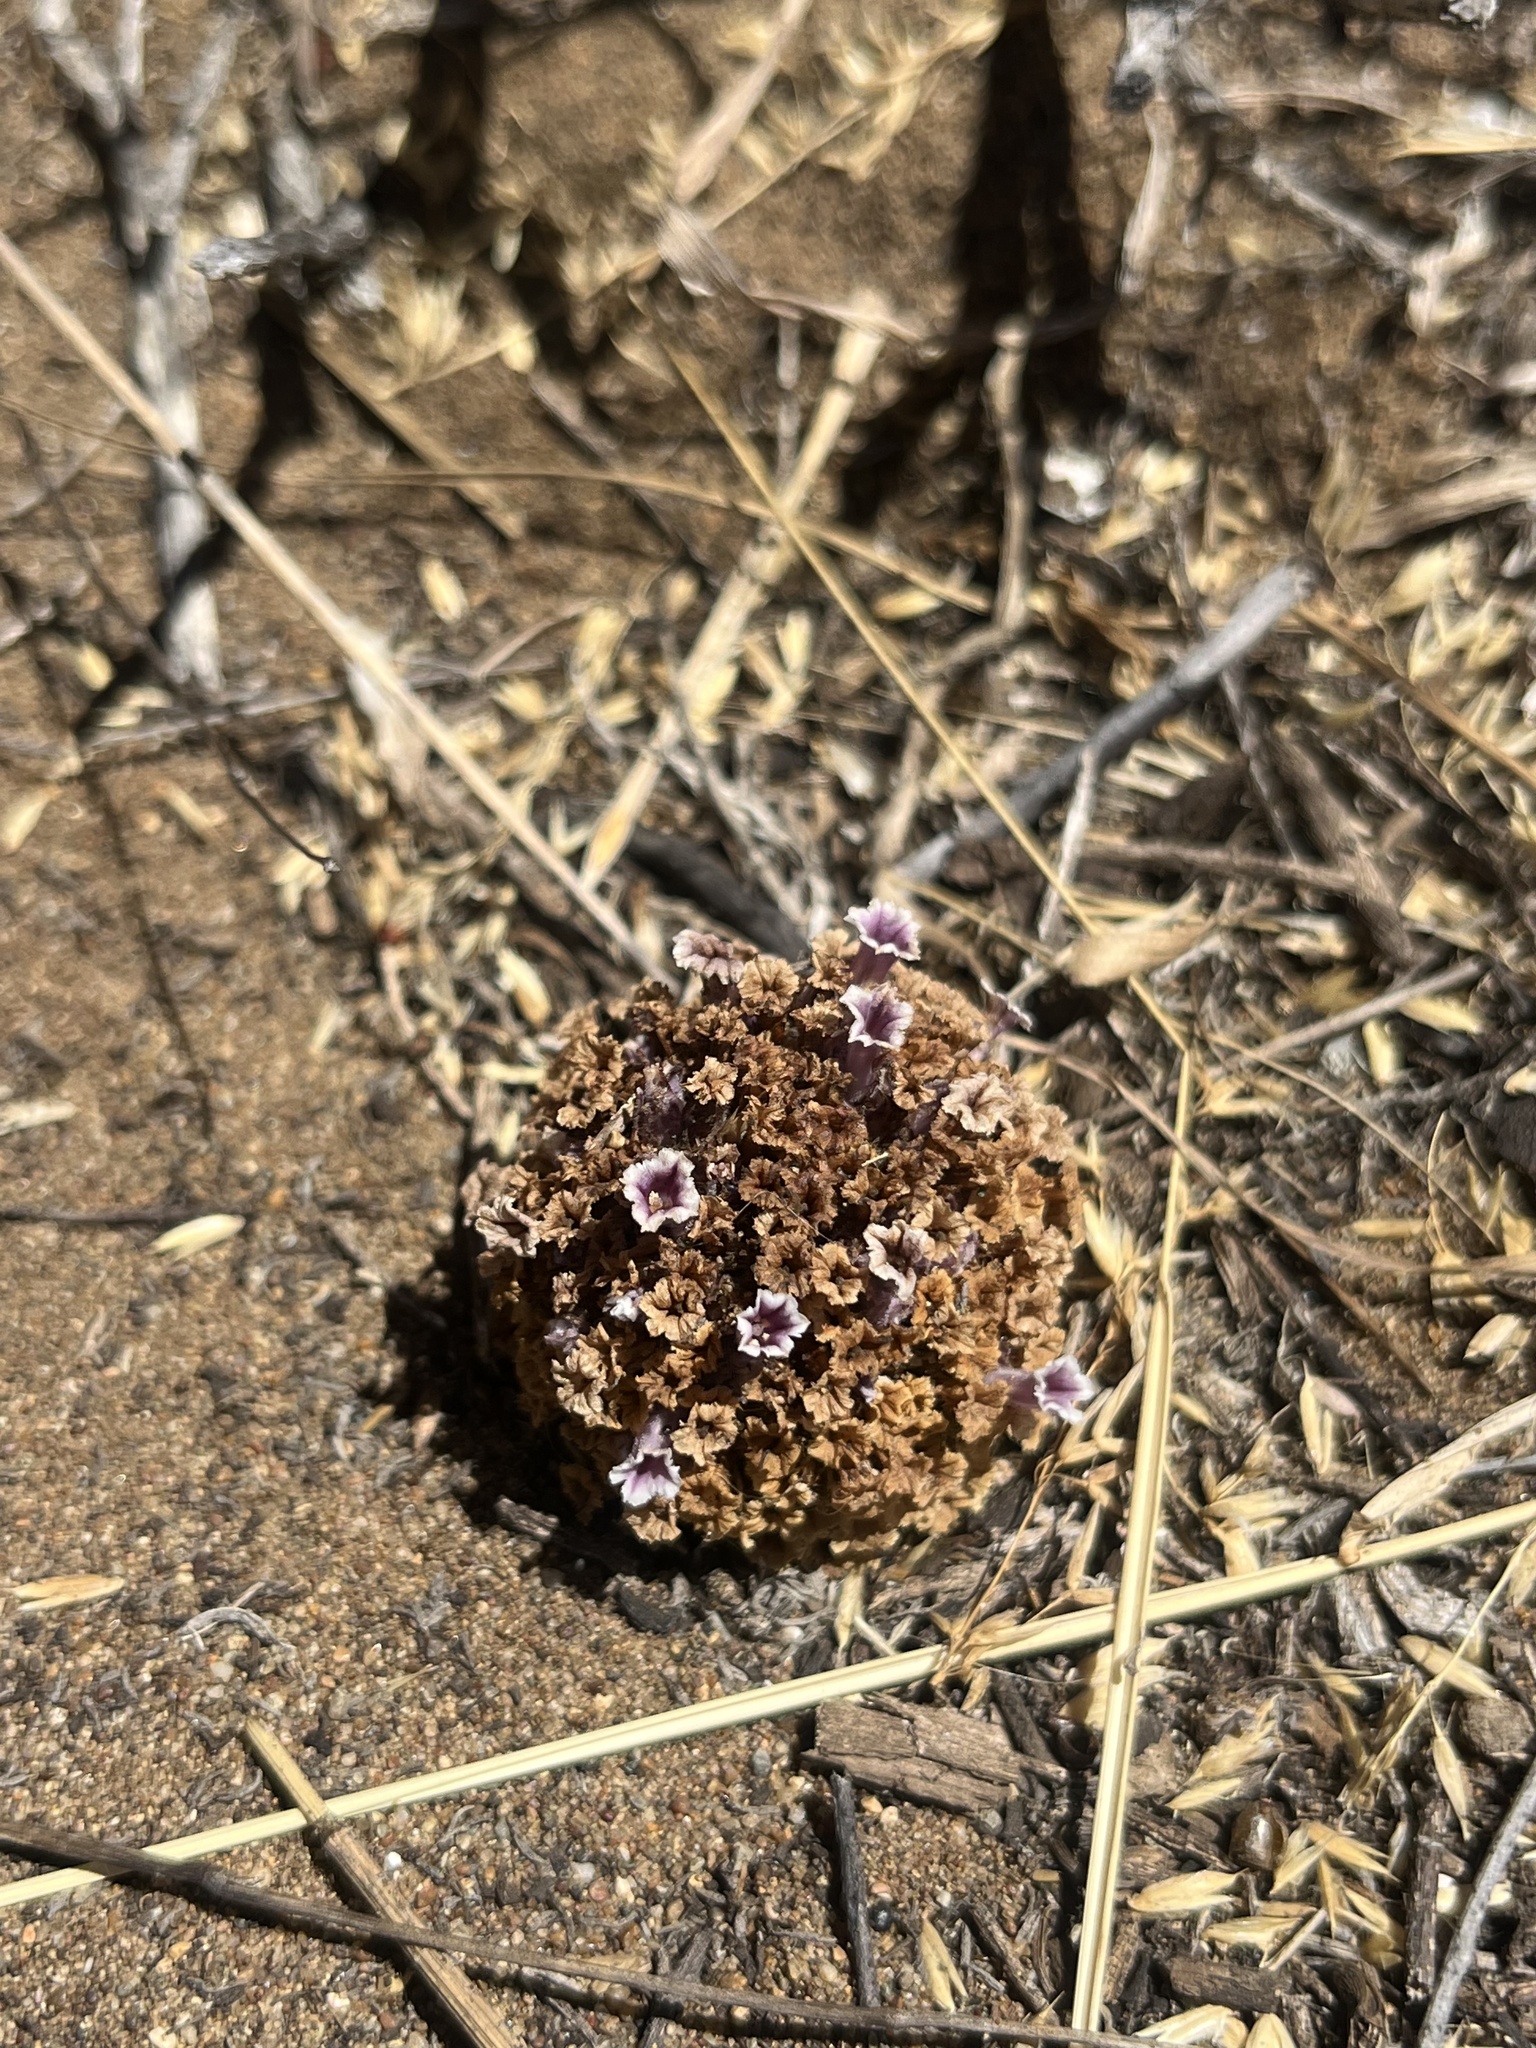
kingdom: Plantae
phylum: Tracheophyta
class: Magnoliopsida
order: Boraginales
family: Lennoaceae
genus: Pholisma
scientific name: Pholisma arenarium
